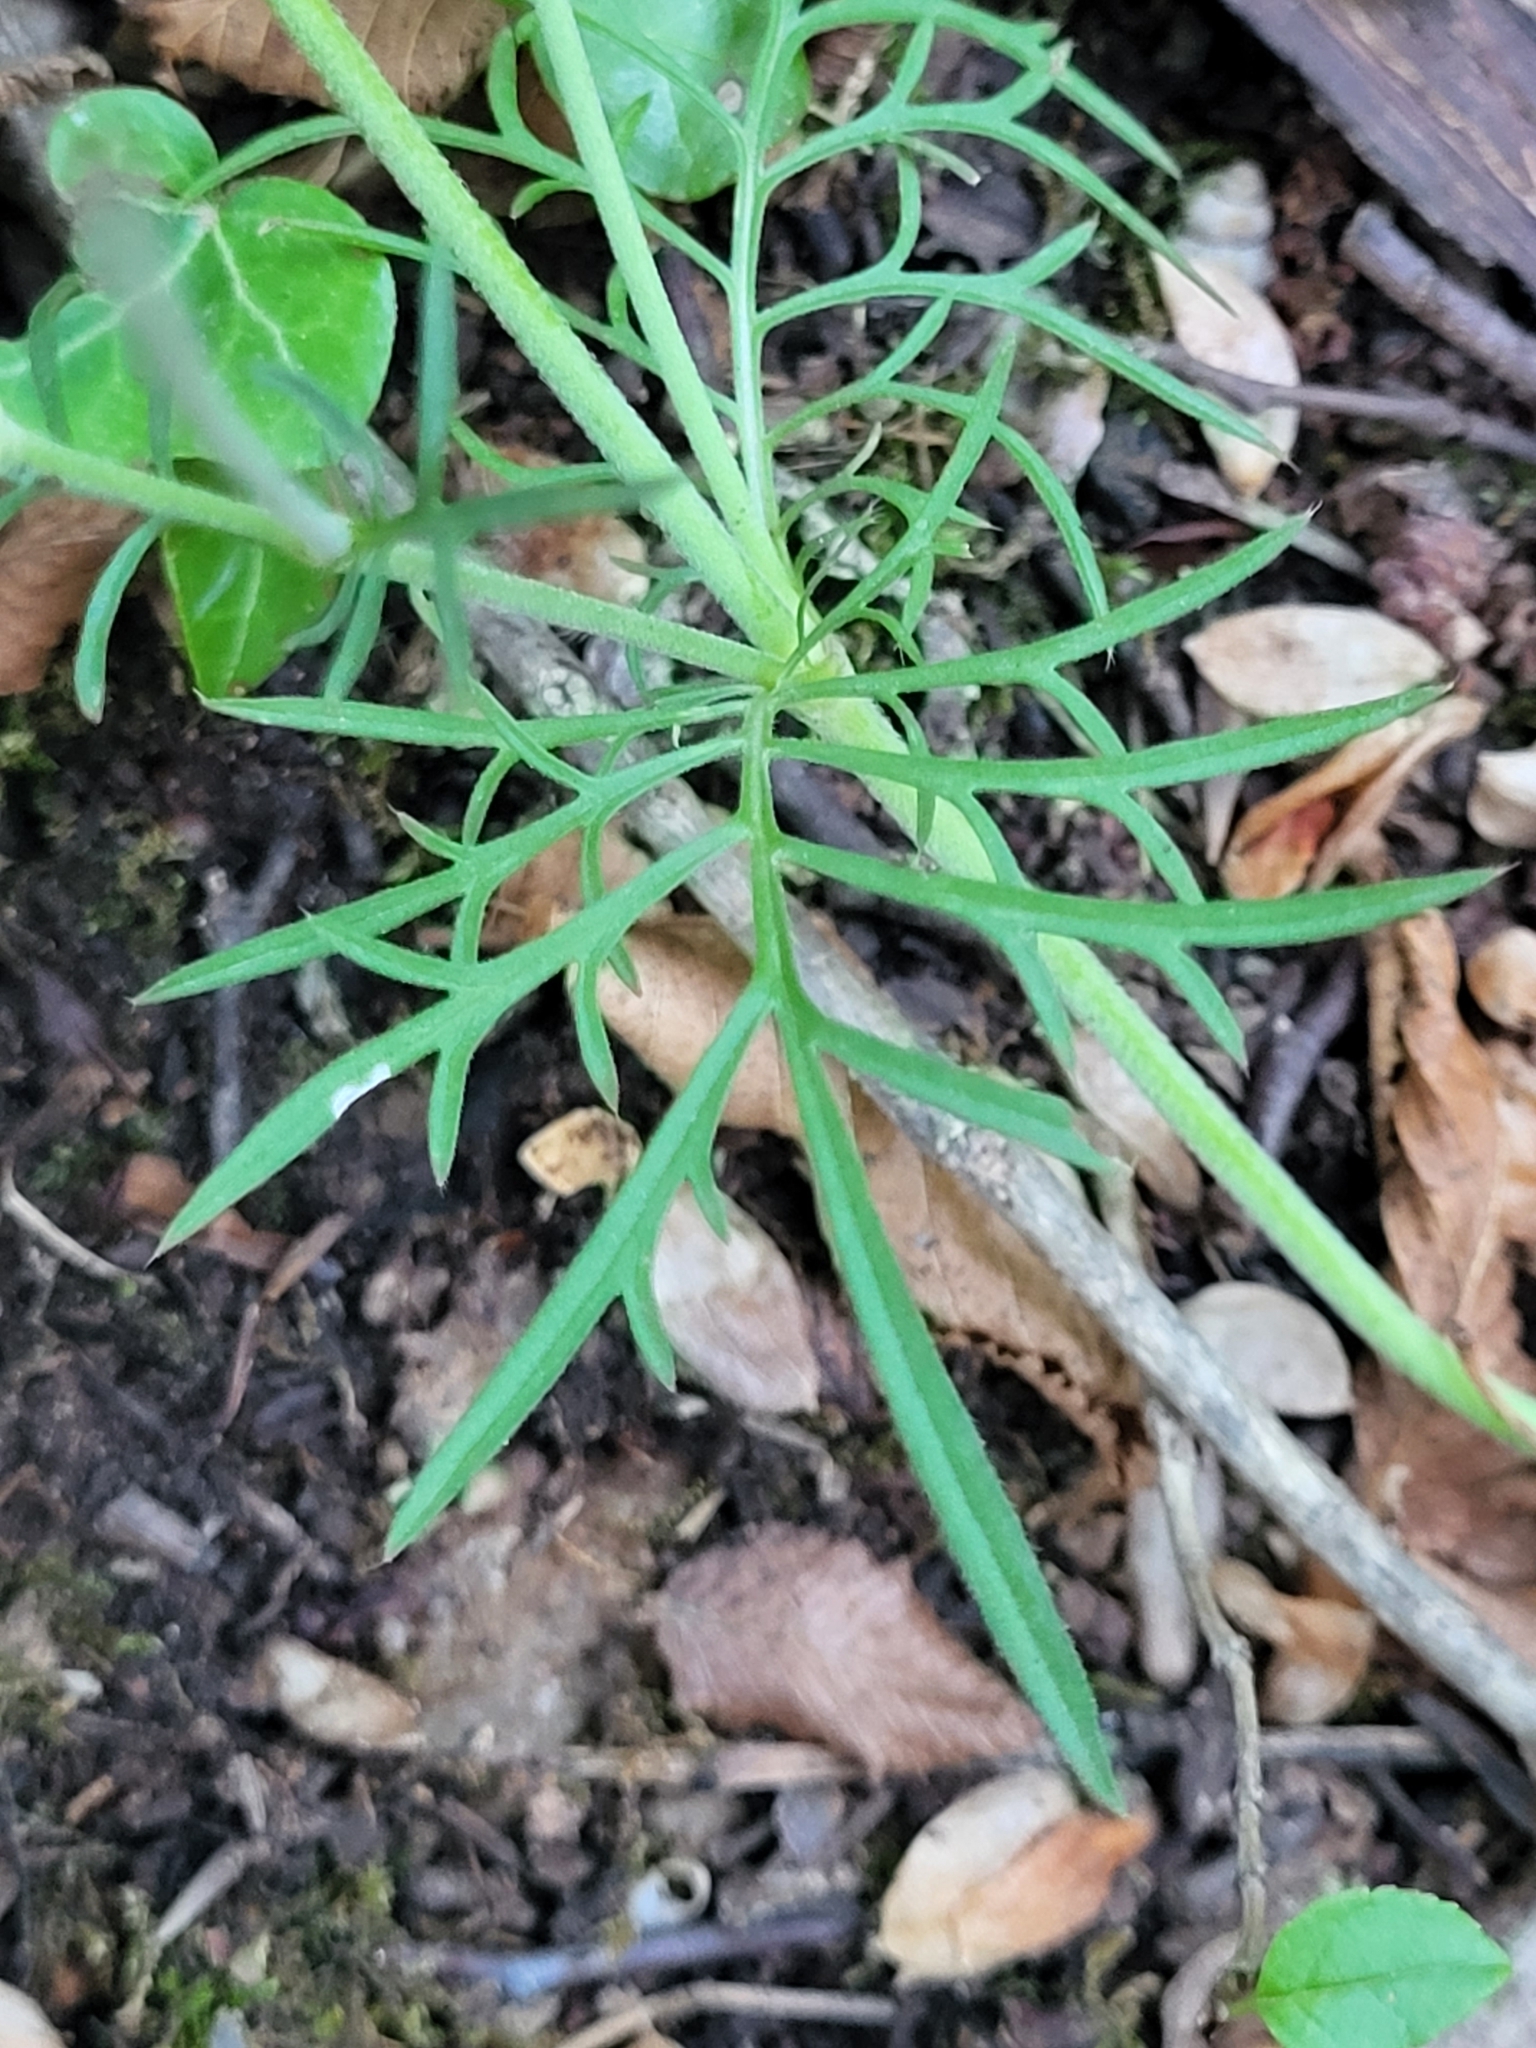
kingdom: Plantae
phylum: Tracheophyta
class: Magnoliopsida
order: Dipsacales
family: Caprifoliaceae
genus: Scabiosa
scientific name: Scabiosa triandra
